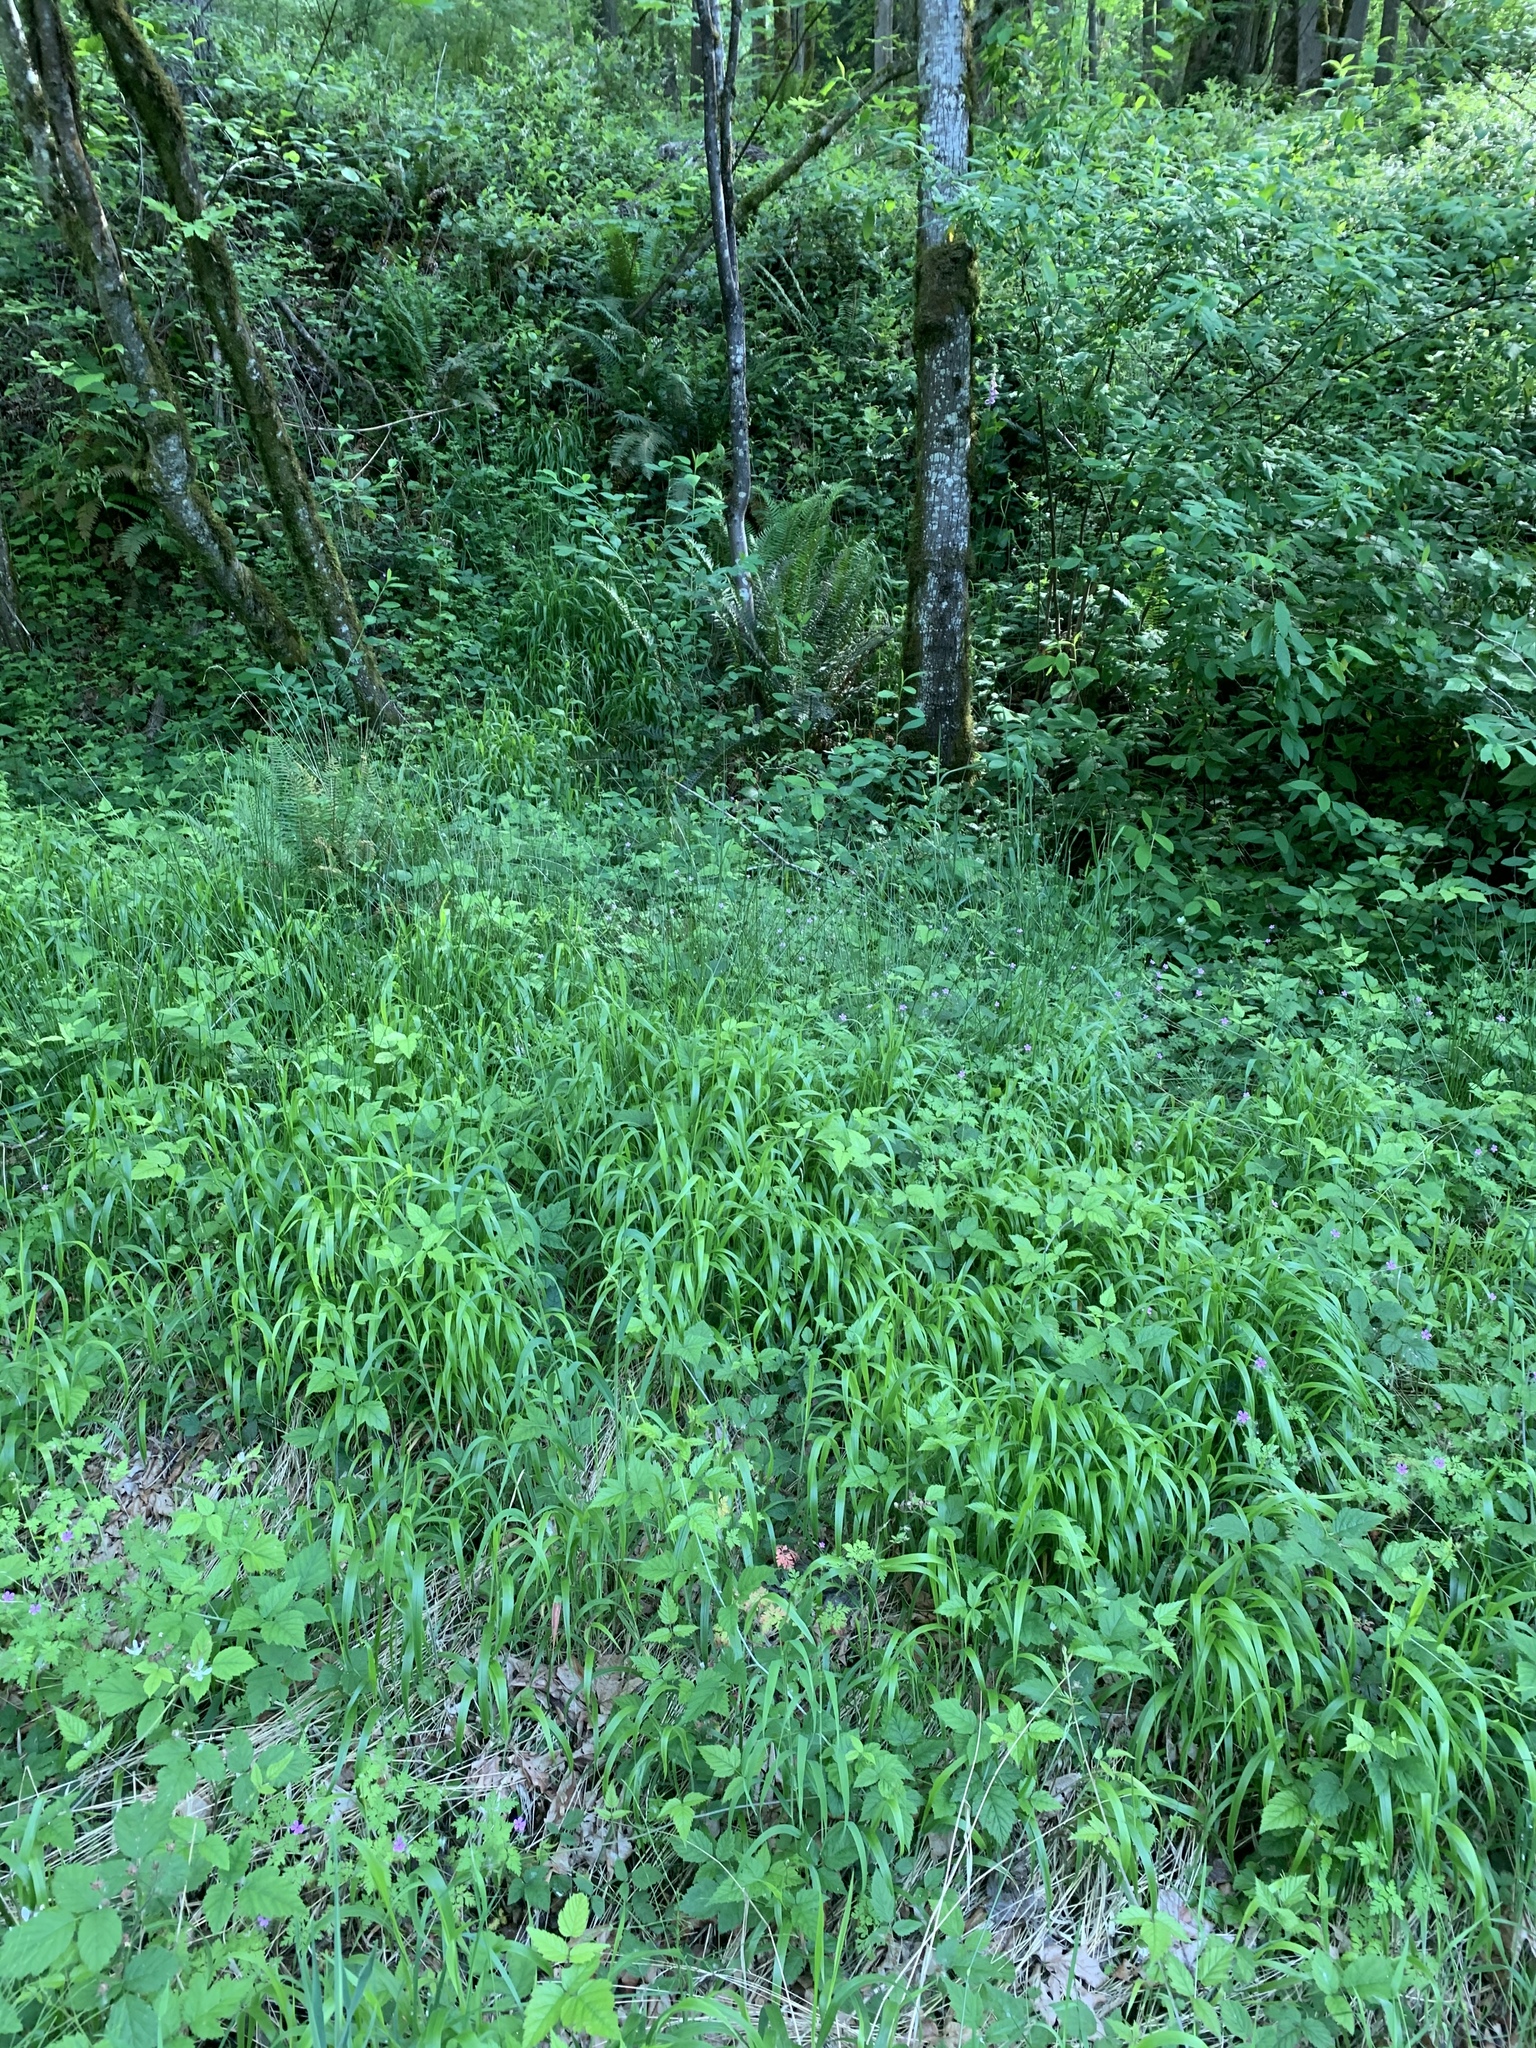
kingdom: Plantae
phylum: Tracheophyta
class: Liliopsida
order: Poales
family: Poaceae
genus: Brachypodium
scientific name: Brachypodium sylvaticum
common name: False-brome
